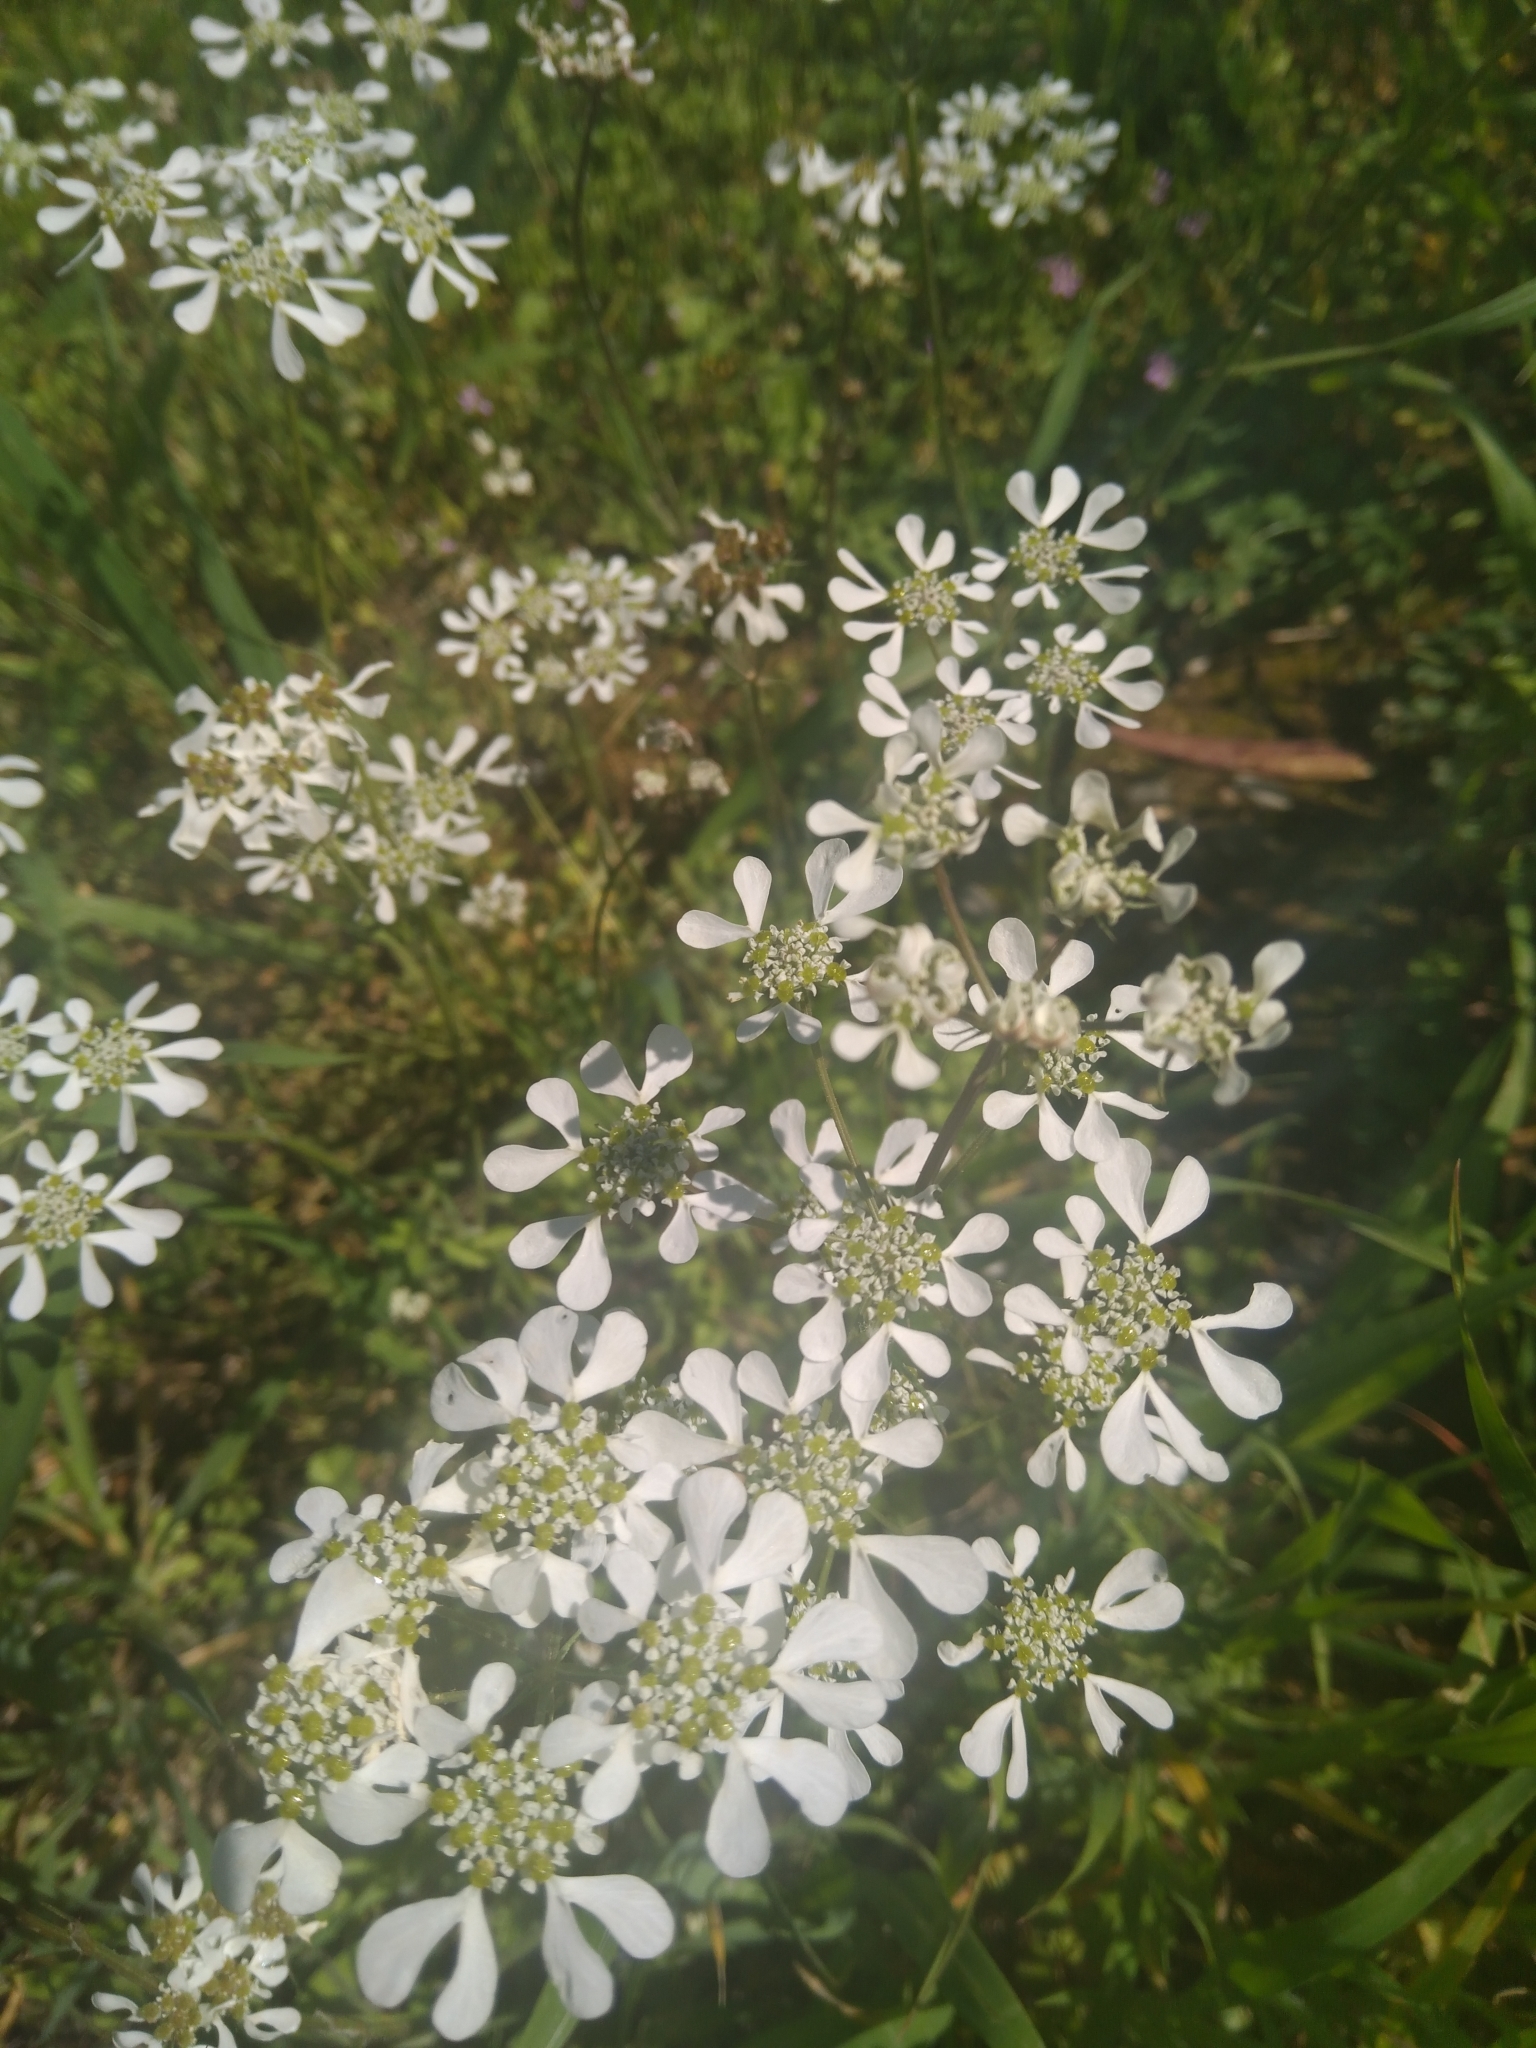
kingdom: Plantae
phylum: Tracheophyta
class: Magnoliopsida
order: Apiales
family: Apiaceae
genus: Tordylium
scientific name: Tordylium apulum
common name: Mediterranean hartwort
